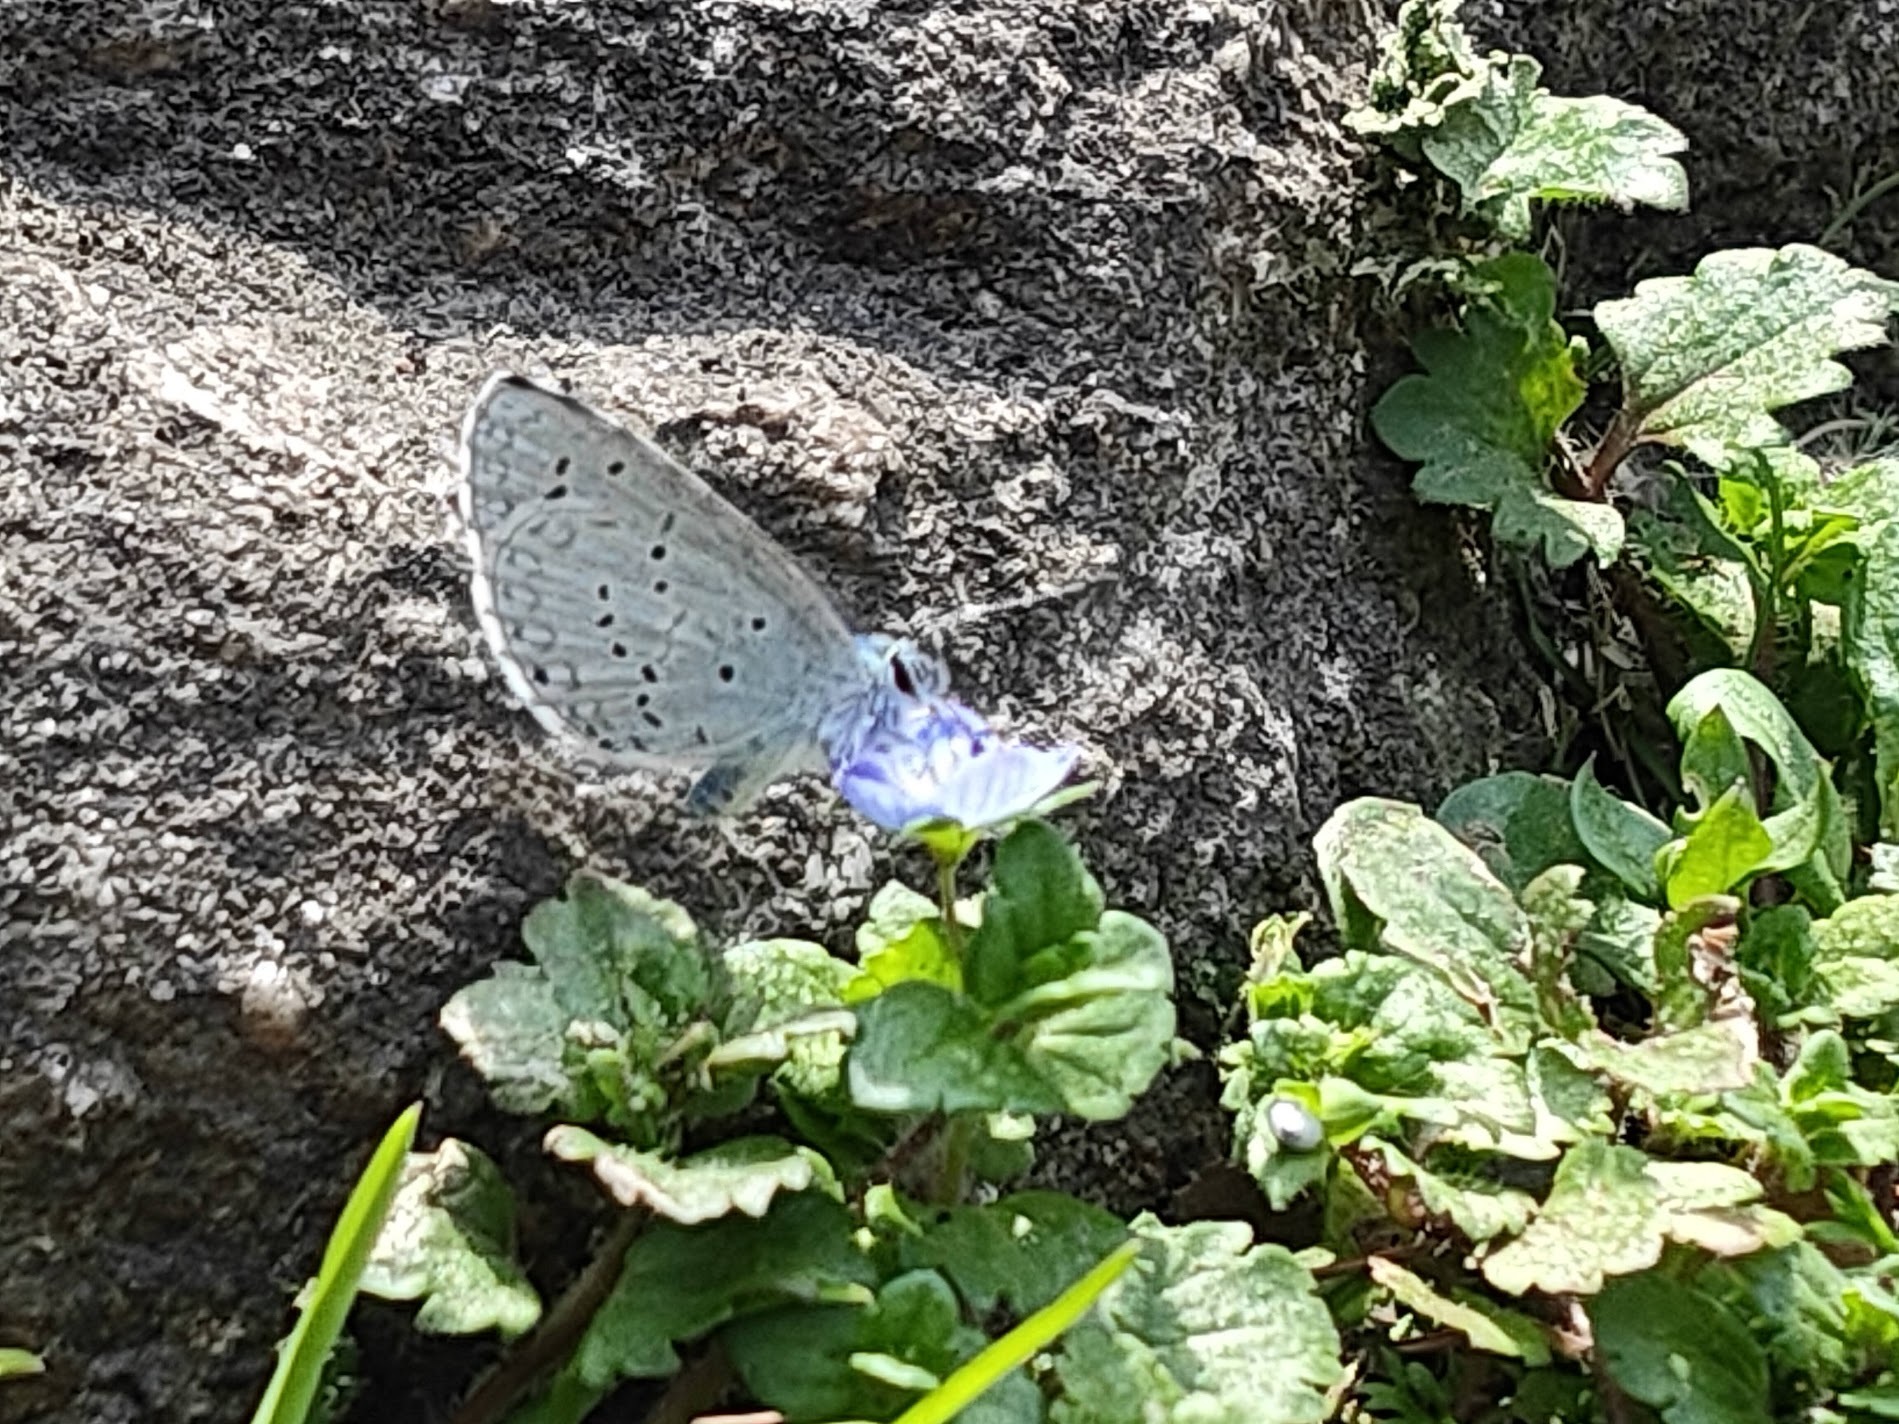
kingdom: Animalia
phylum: Arthropoda
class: Insecta
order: Lepidoptera
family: Lycaenidae
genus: Celastrina
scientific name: Celastrina argiolus
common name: Holly blue
